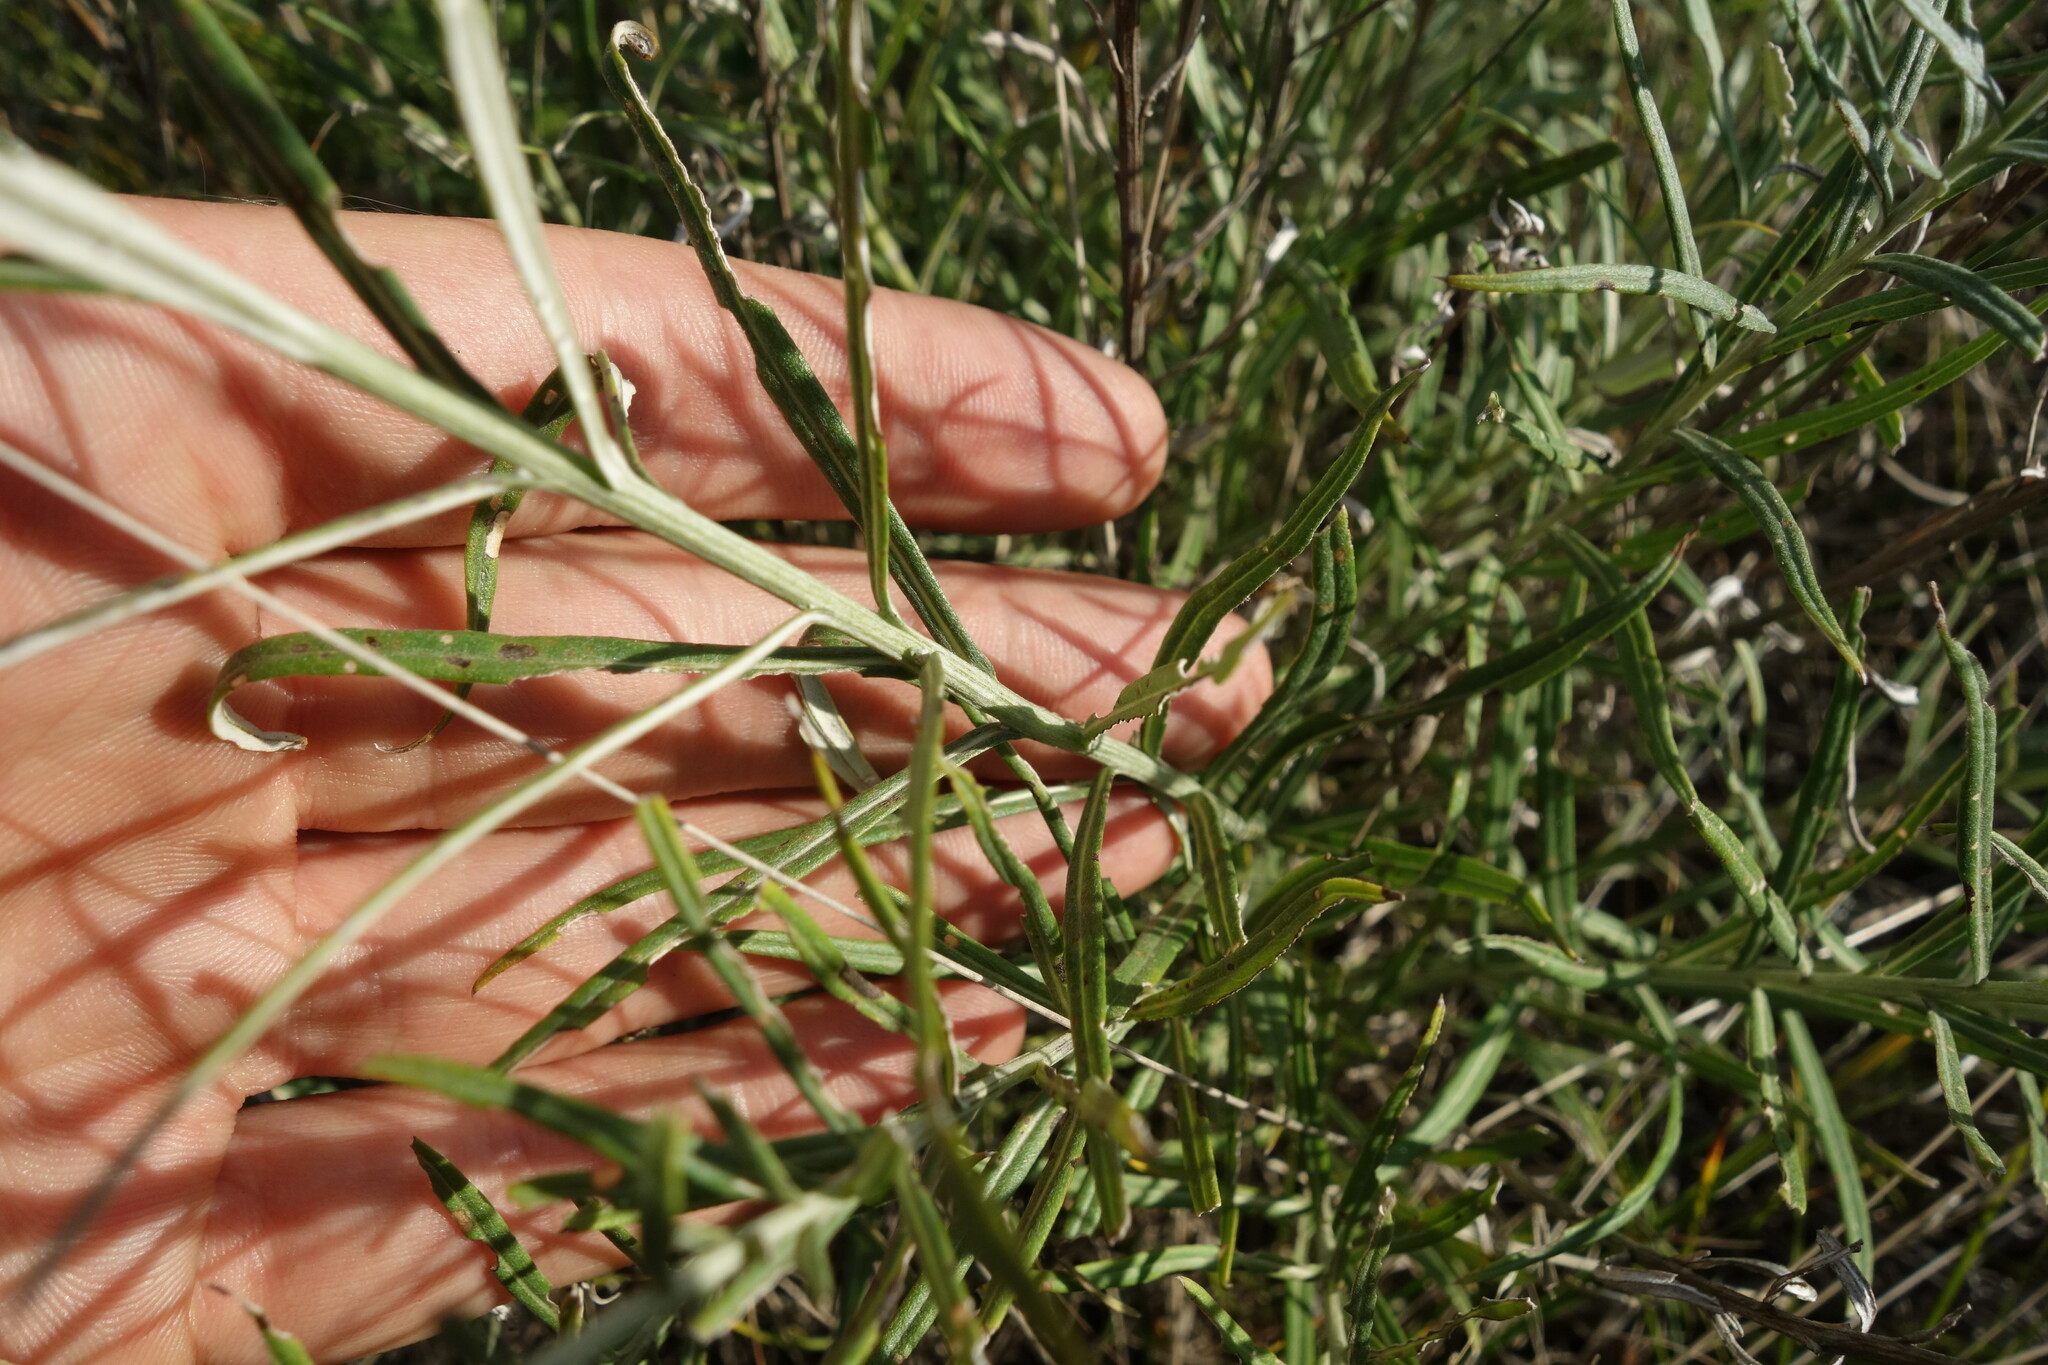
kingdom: Plantae
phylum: Tracheophyta
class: Magnoliopsida
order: Asterales
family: Asteraceae
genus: Saussurea
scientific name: Saussurea salicifolia
